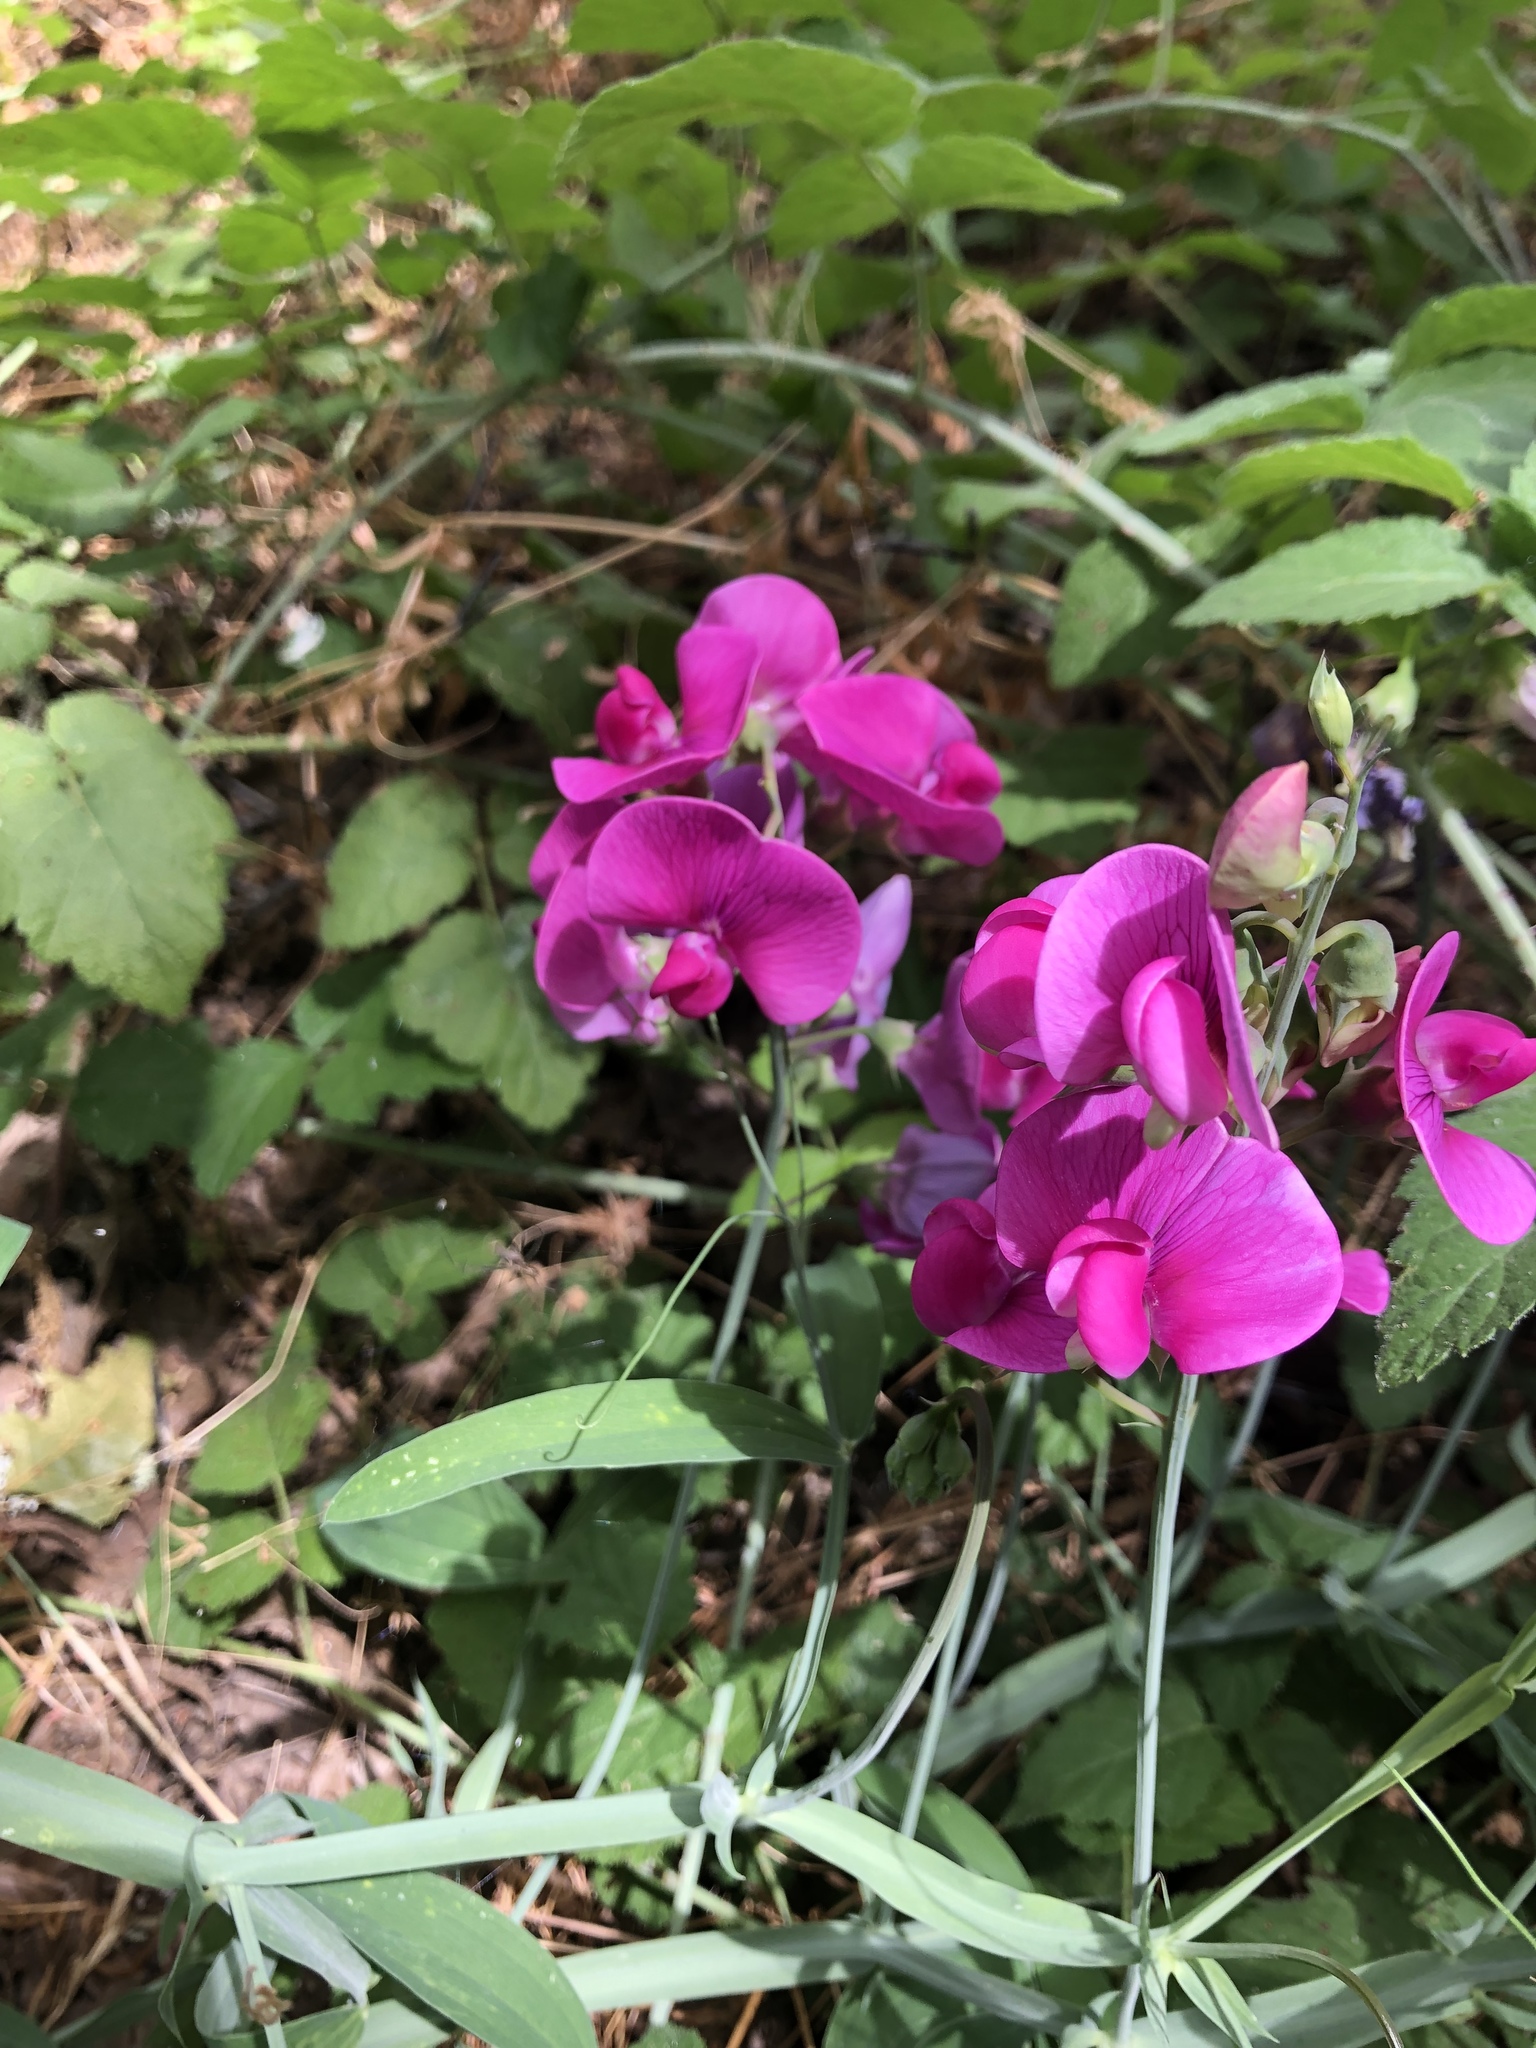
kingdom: Plantae
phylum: Tracheophyta
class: Magnoliopsida
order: Fabales
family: Fabaceae
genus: Lathyrus
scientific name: Lathyrus latifolius
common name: Perennial pea
